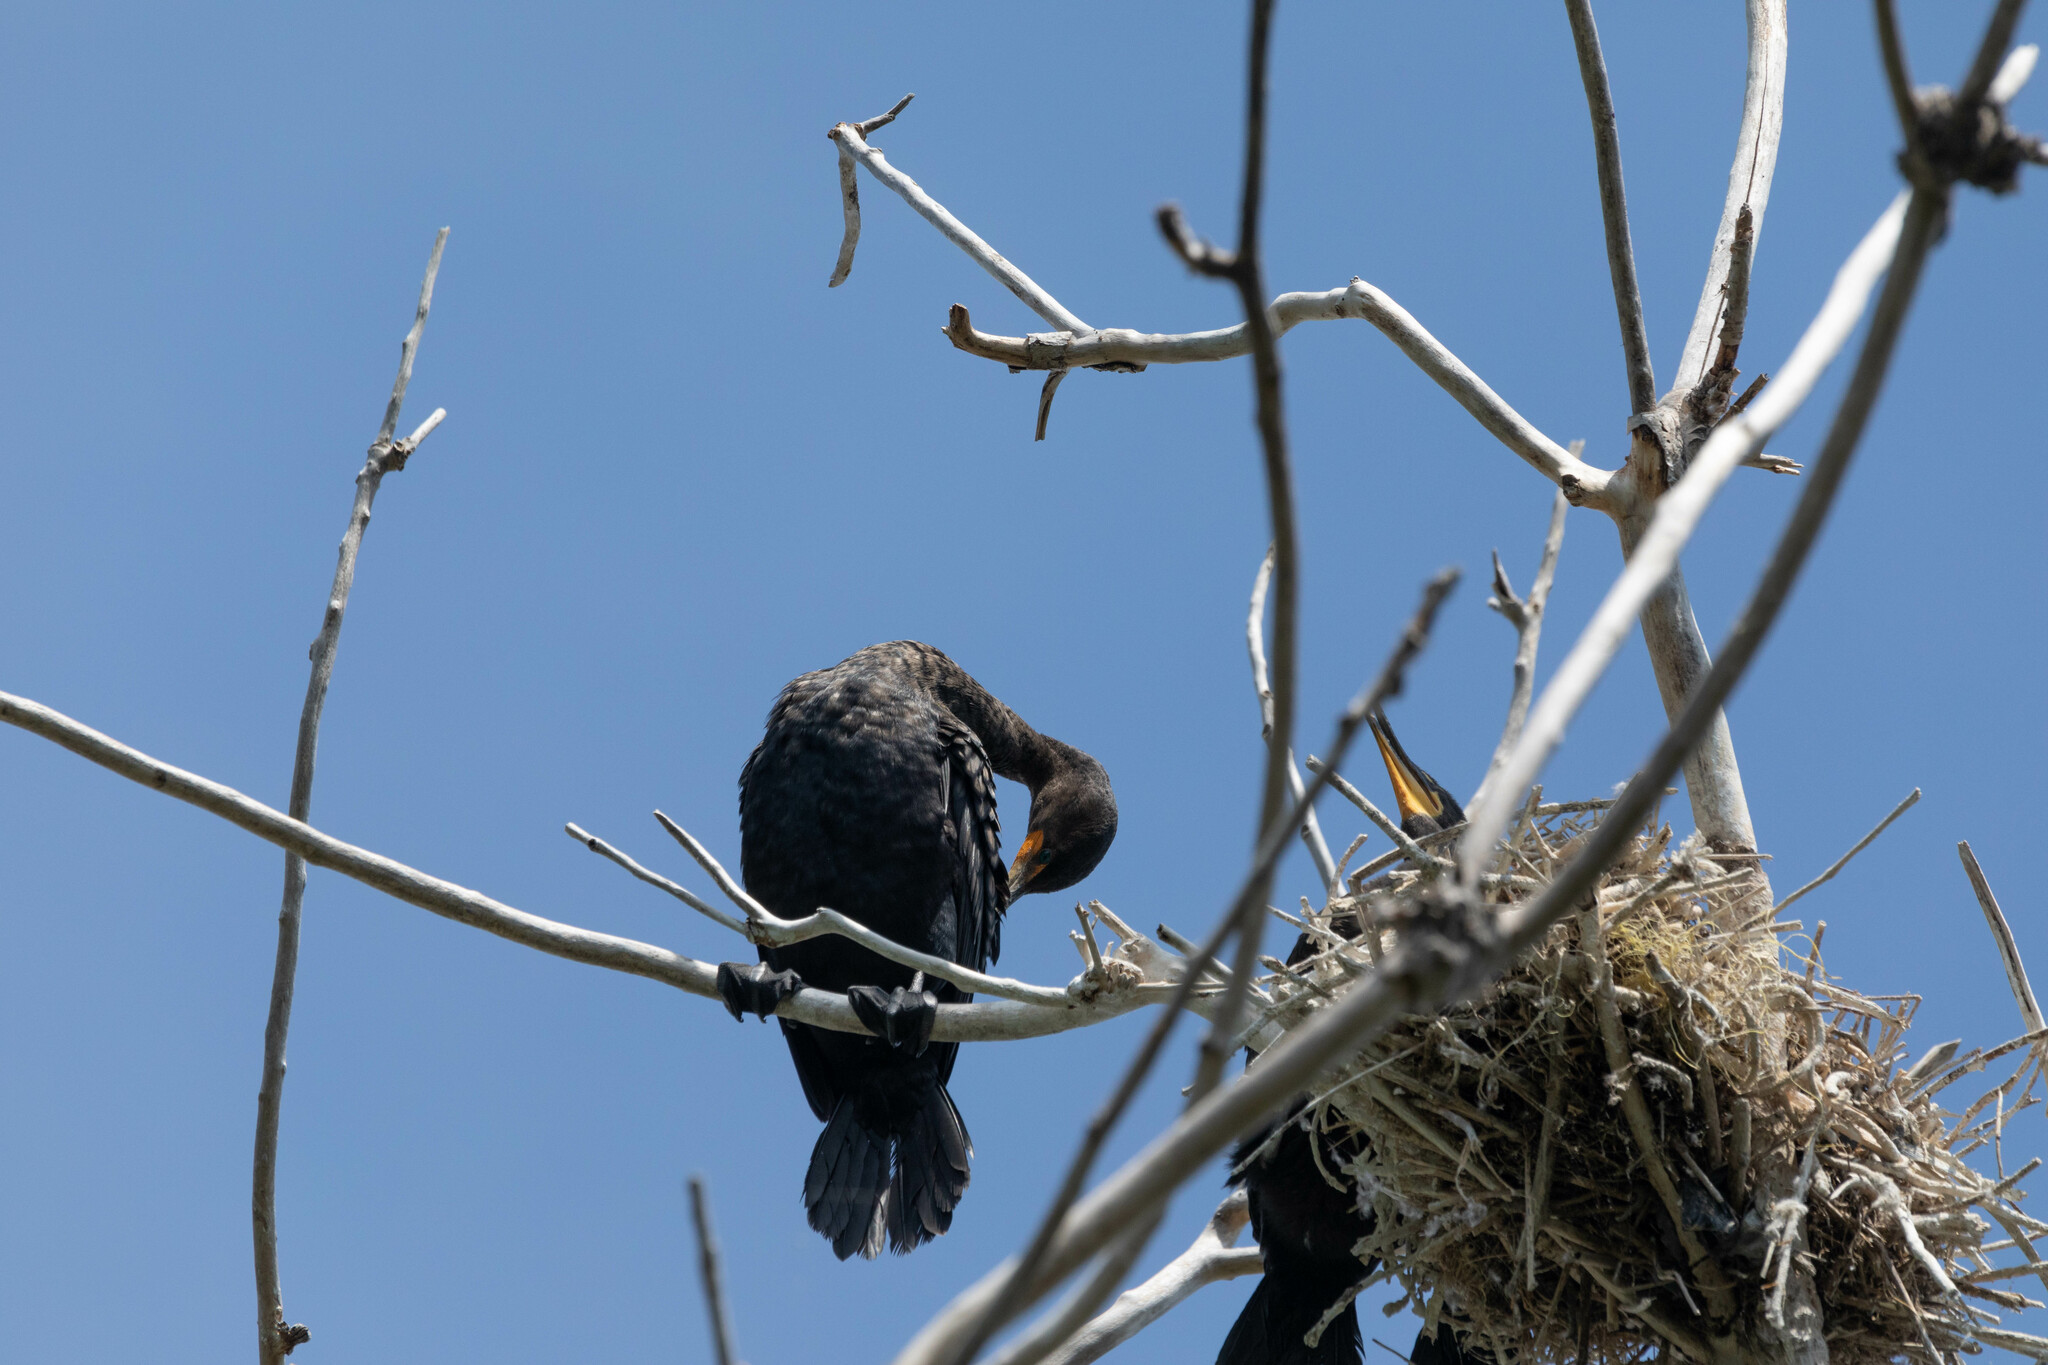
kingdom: Animalia
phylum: Chordata
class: Aves
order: Suliformes
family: Phalacrocoracidae
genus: Phalacrocorax
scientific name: Phalacrocorax auritus
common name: Double-crested cormorant
